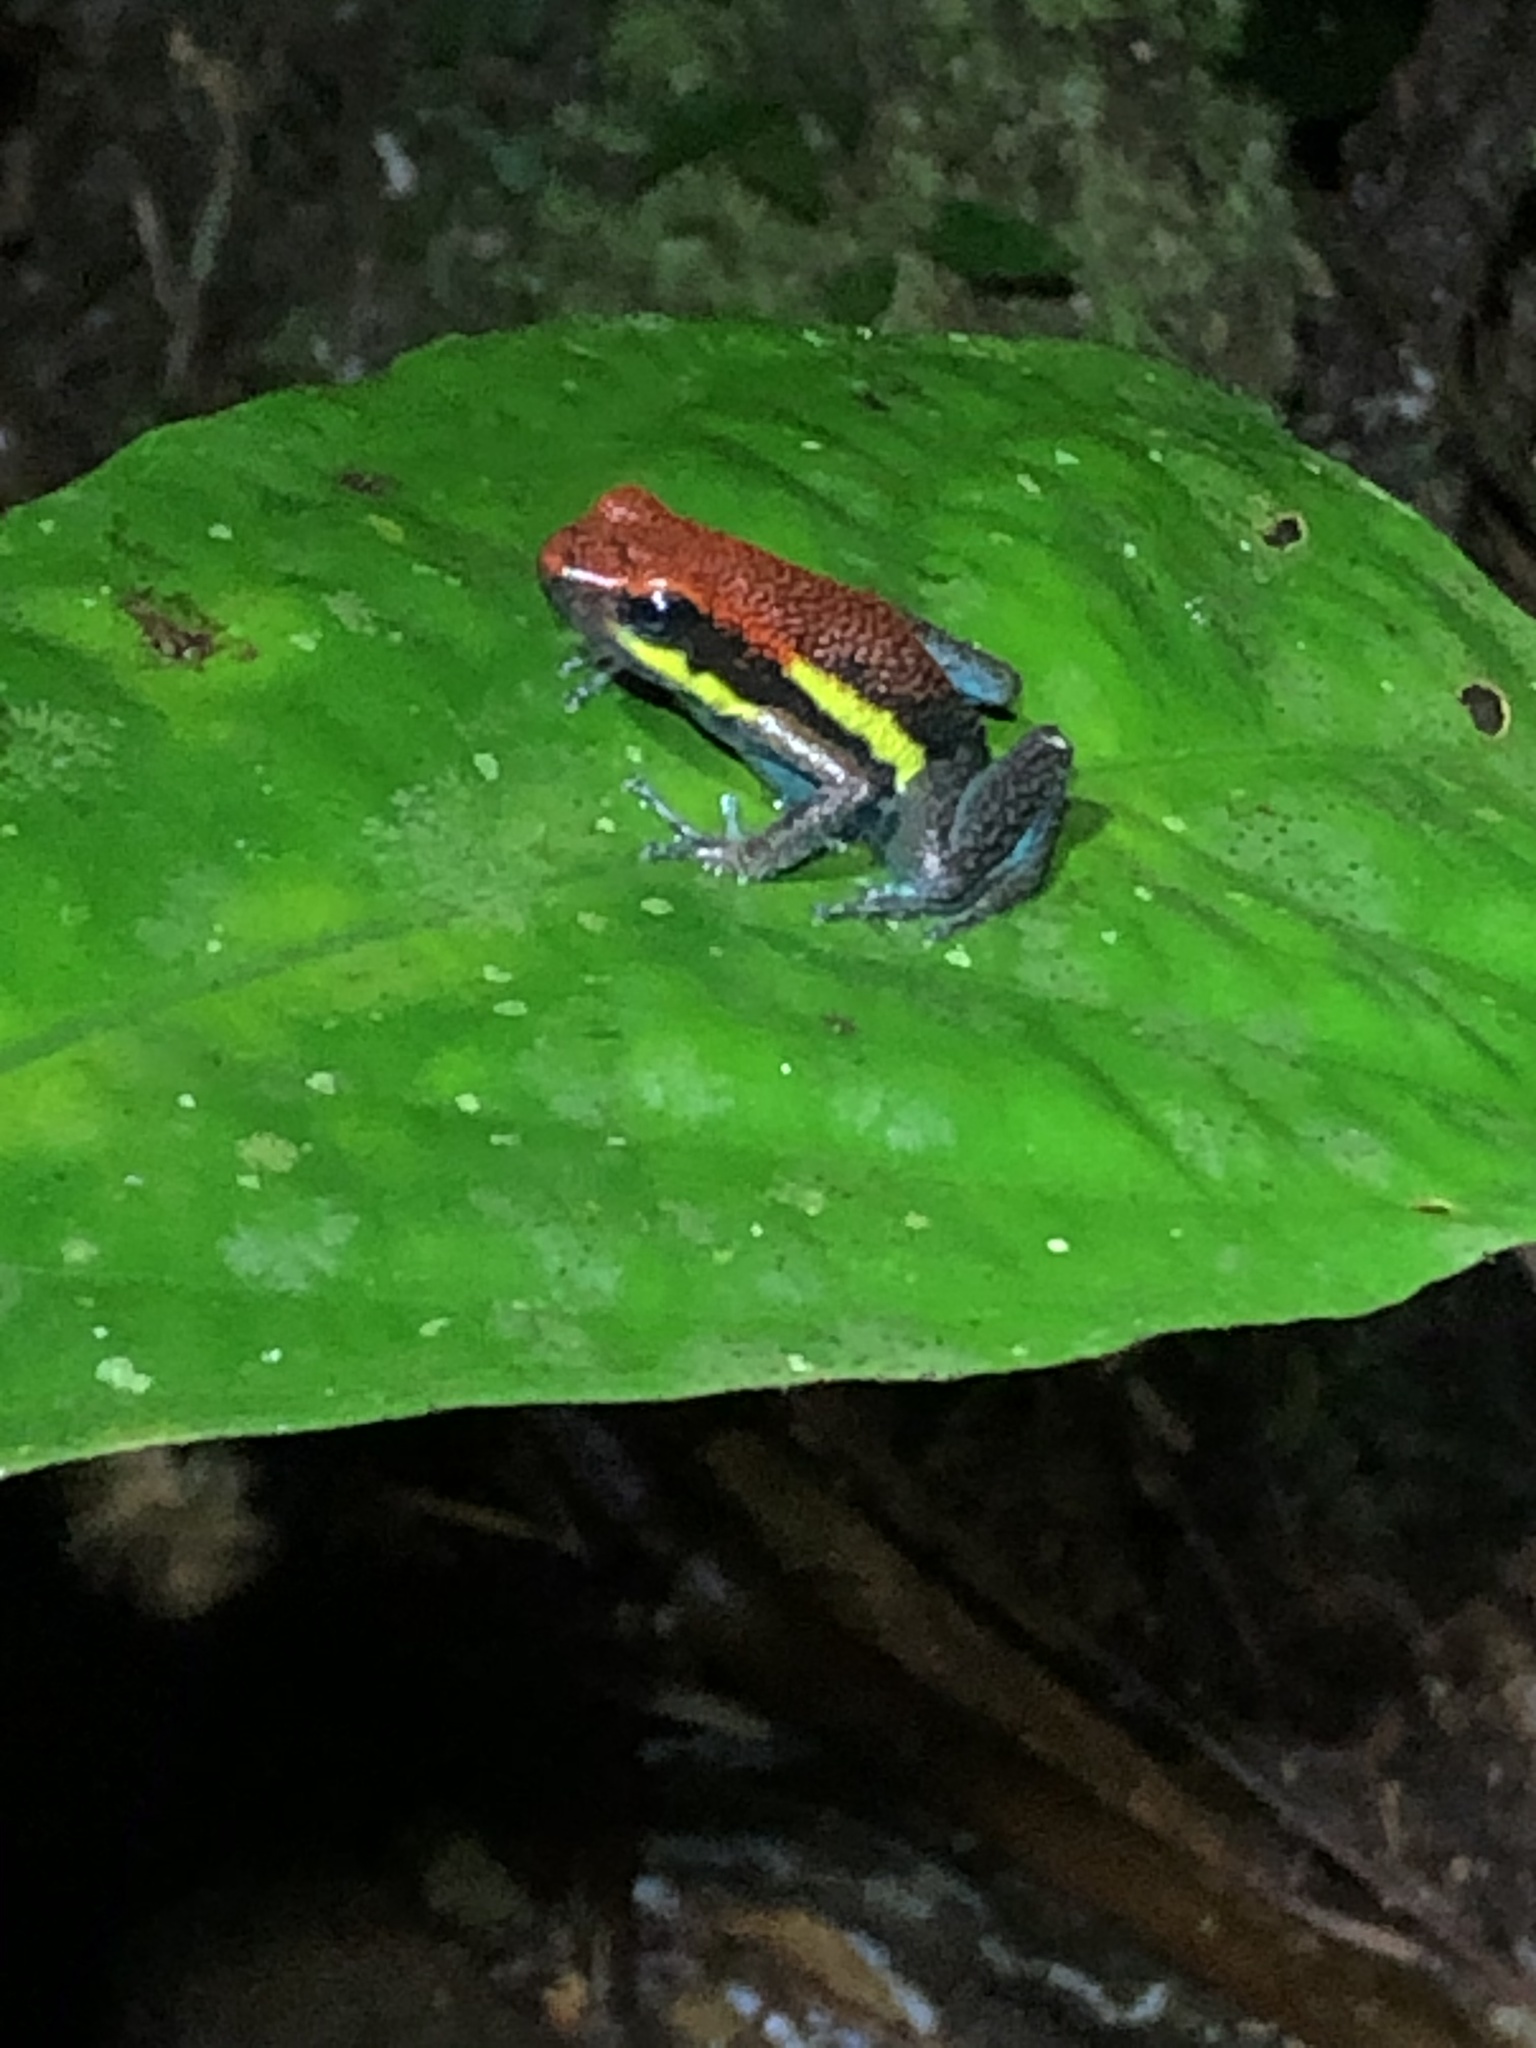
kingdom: Animalia
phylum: Chordata
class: Amphibia
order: Anura
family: Dendrobatidae
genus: Ameerega
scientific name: Ameerega macero
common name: Manu poison frog
